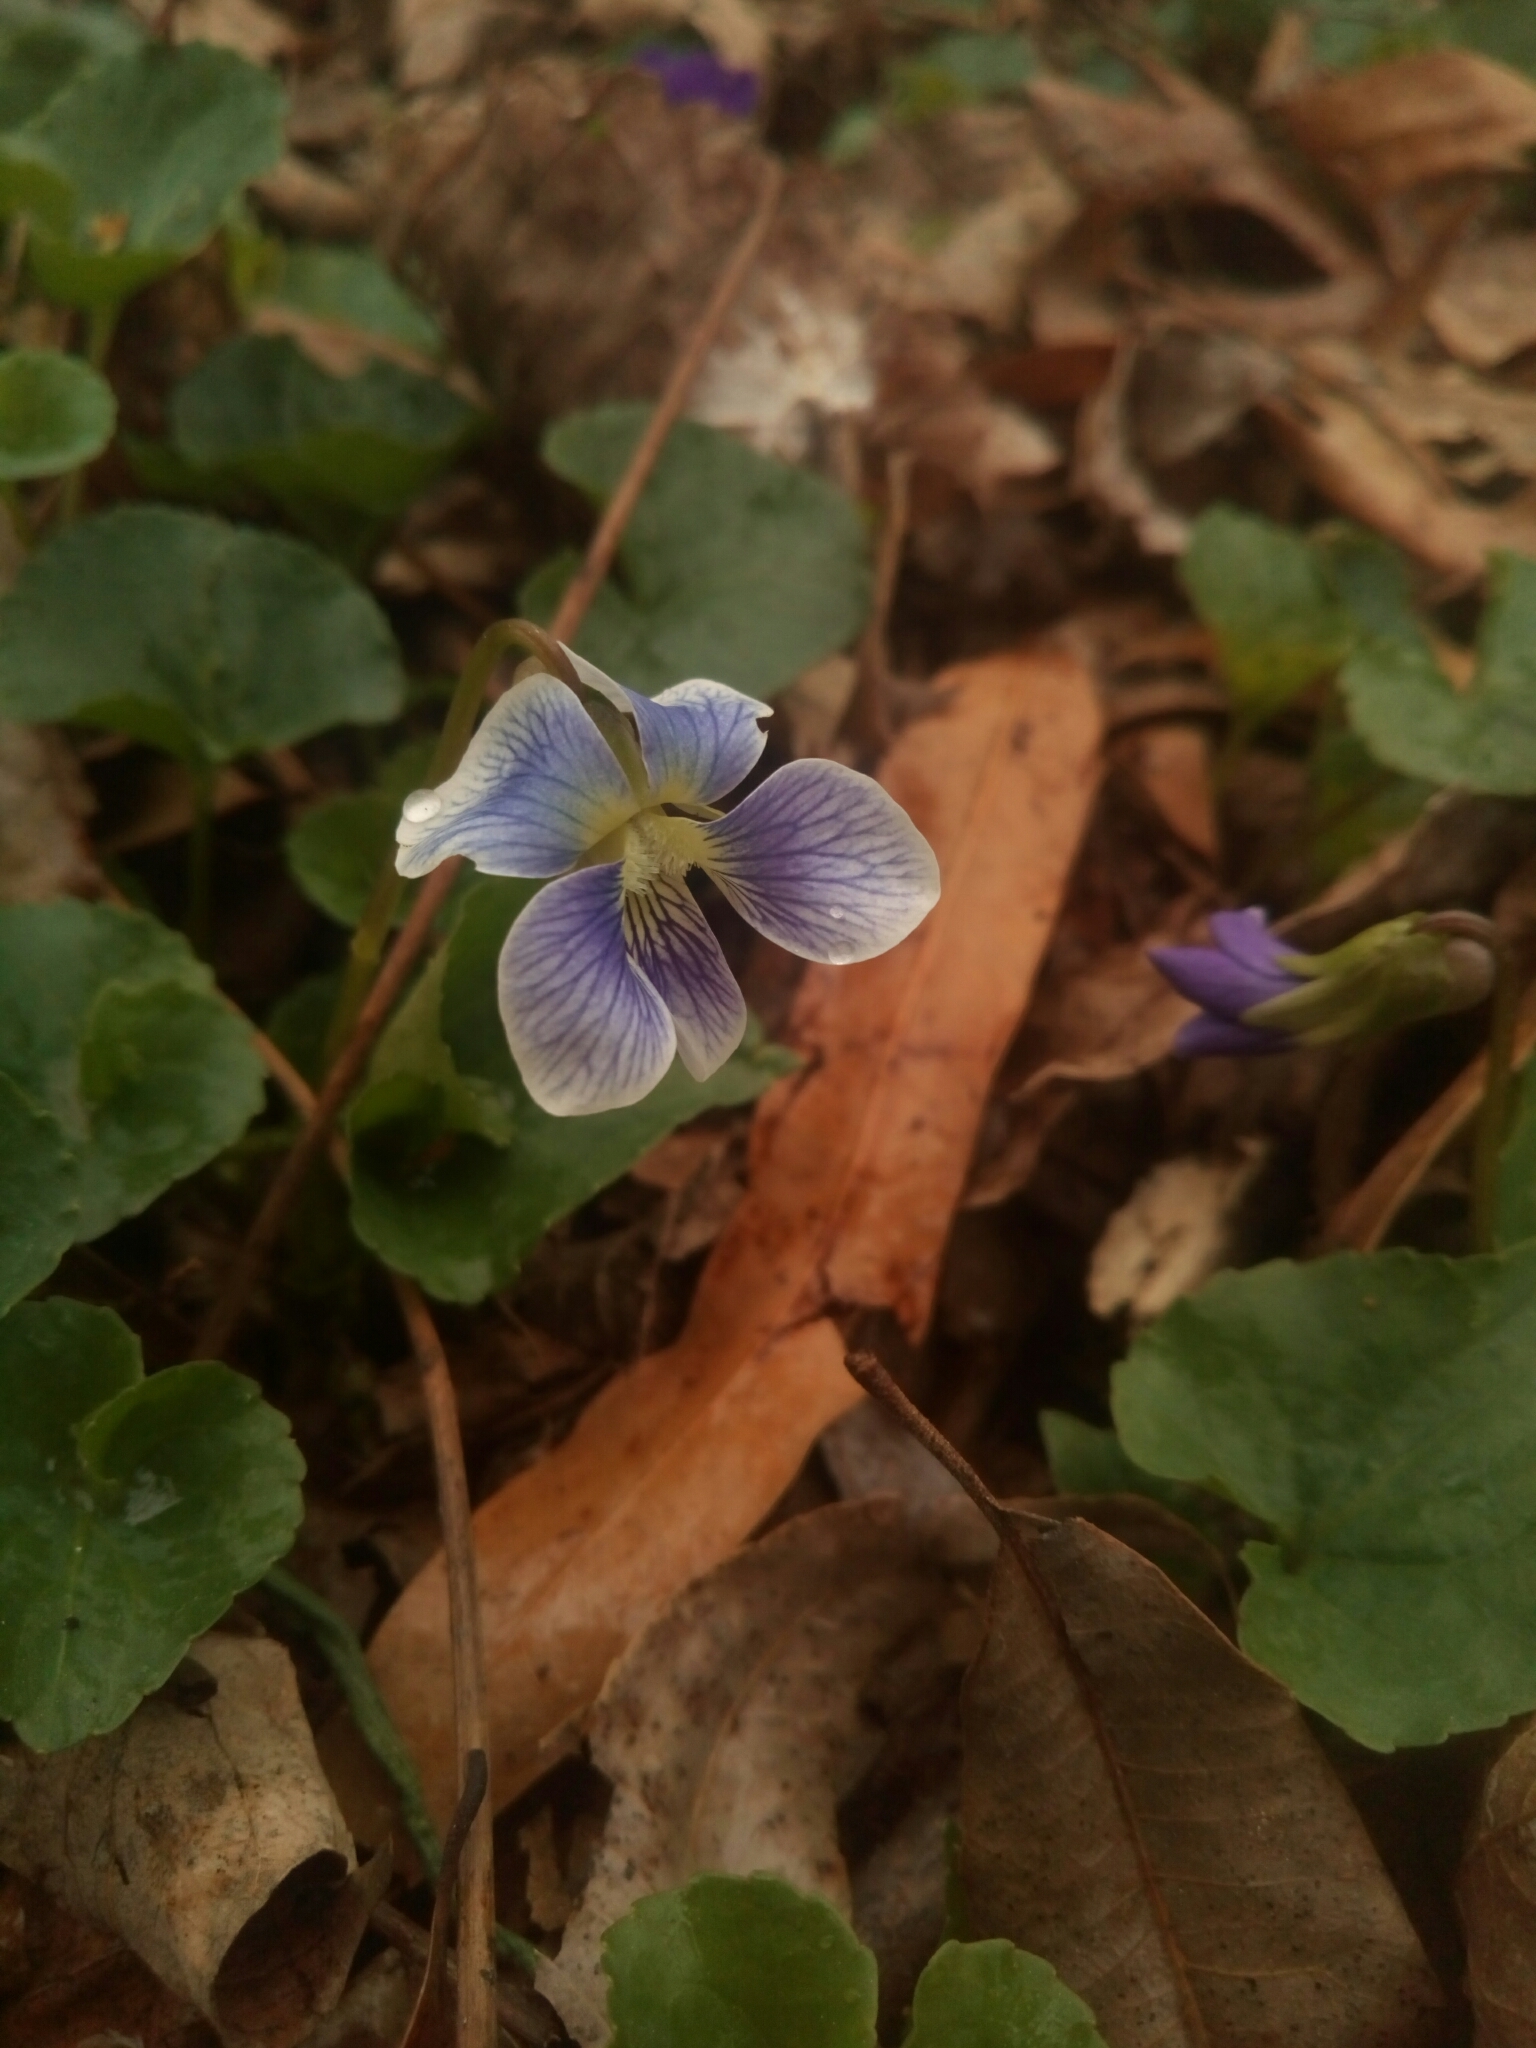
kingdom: Plantae
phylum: Tracheophyta
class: Magnoliopsida
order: Malpighiales
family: Violaceae
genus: Viola
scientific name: Viola sororia
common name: Dooryard violet
